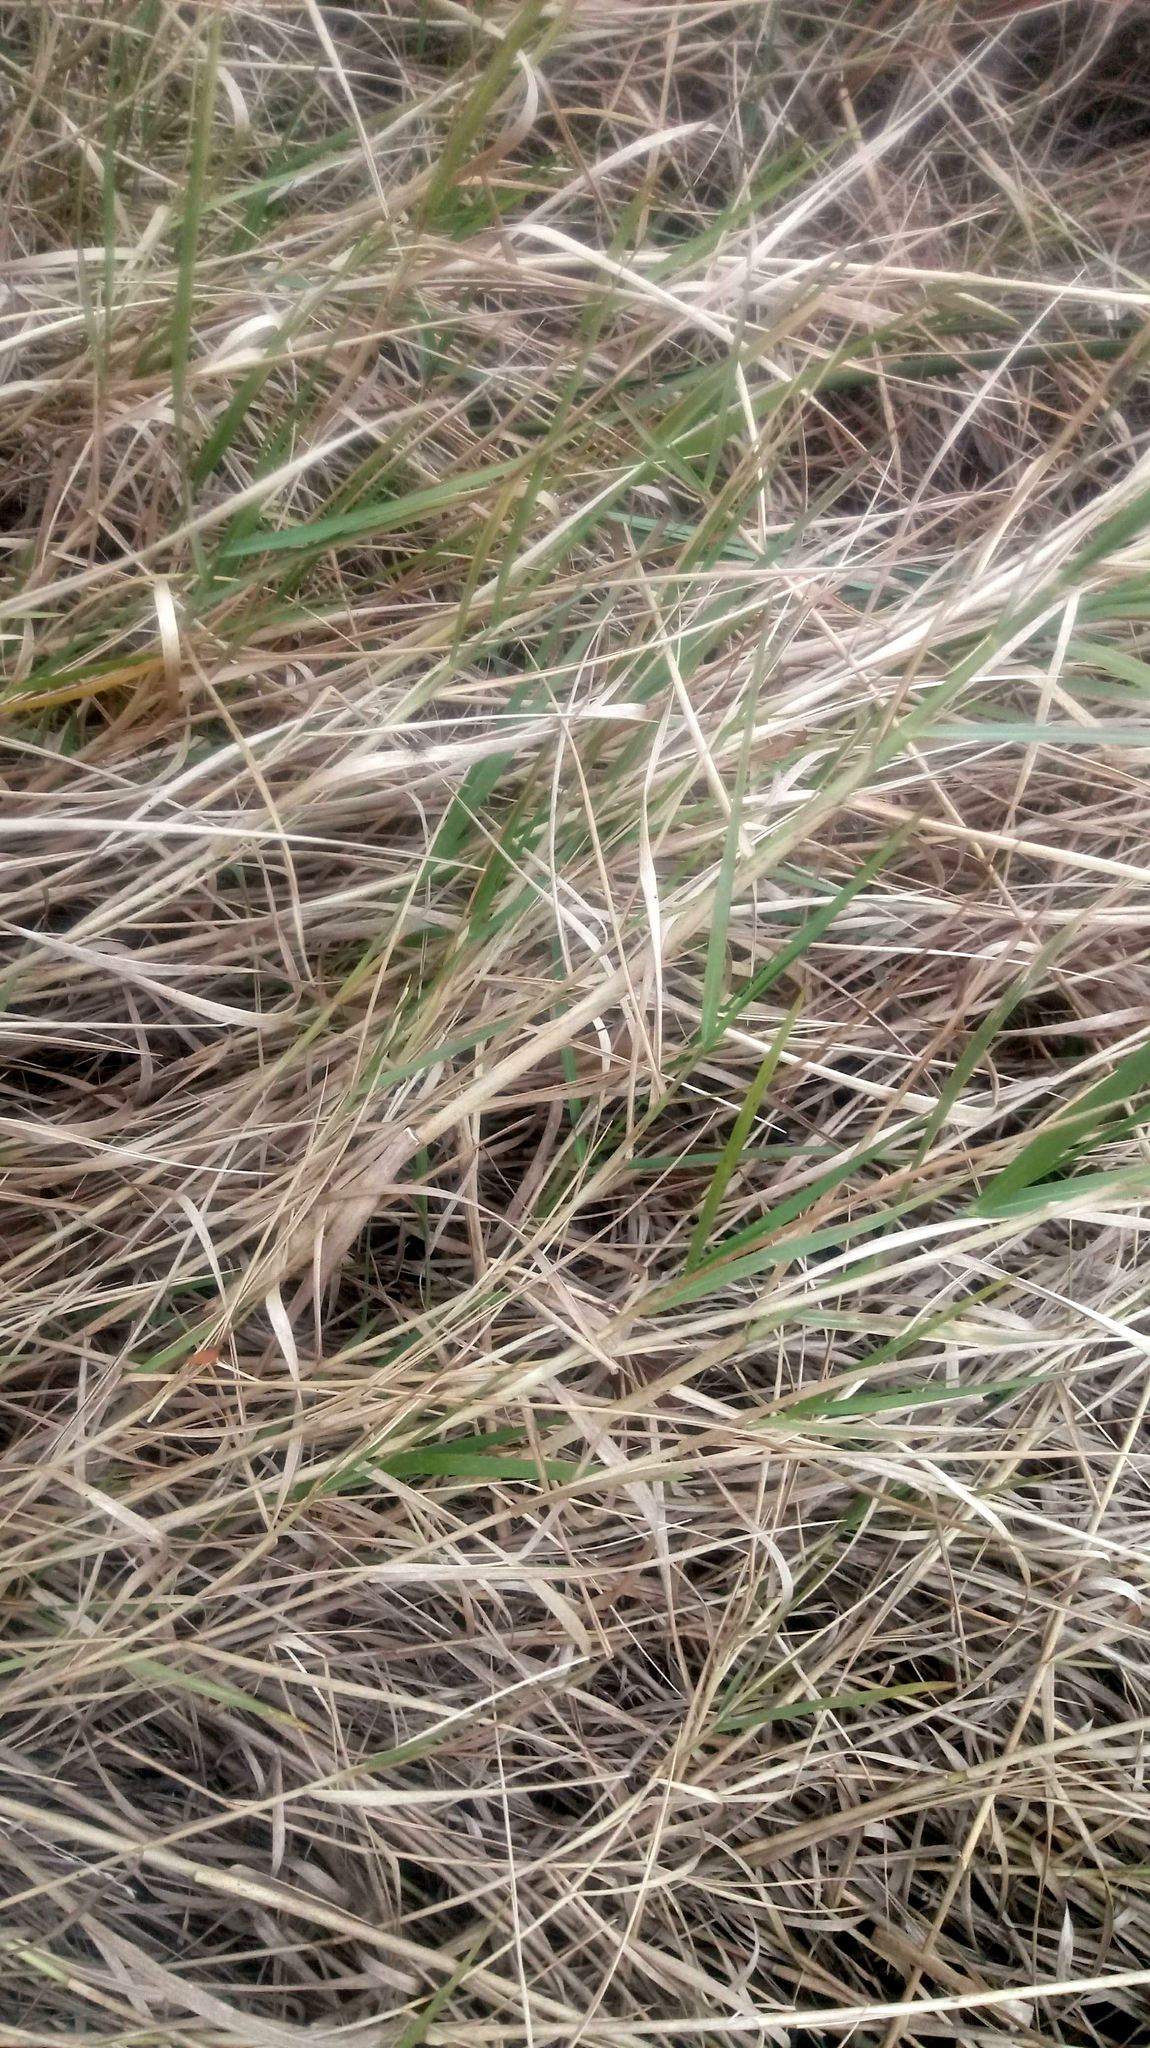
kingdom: Plantae
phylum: Tracheophyta
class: Liliopsida
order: Poales
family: Poaceae
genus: Panicum
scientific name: Panicum repens
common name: Torpedo grass
